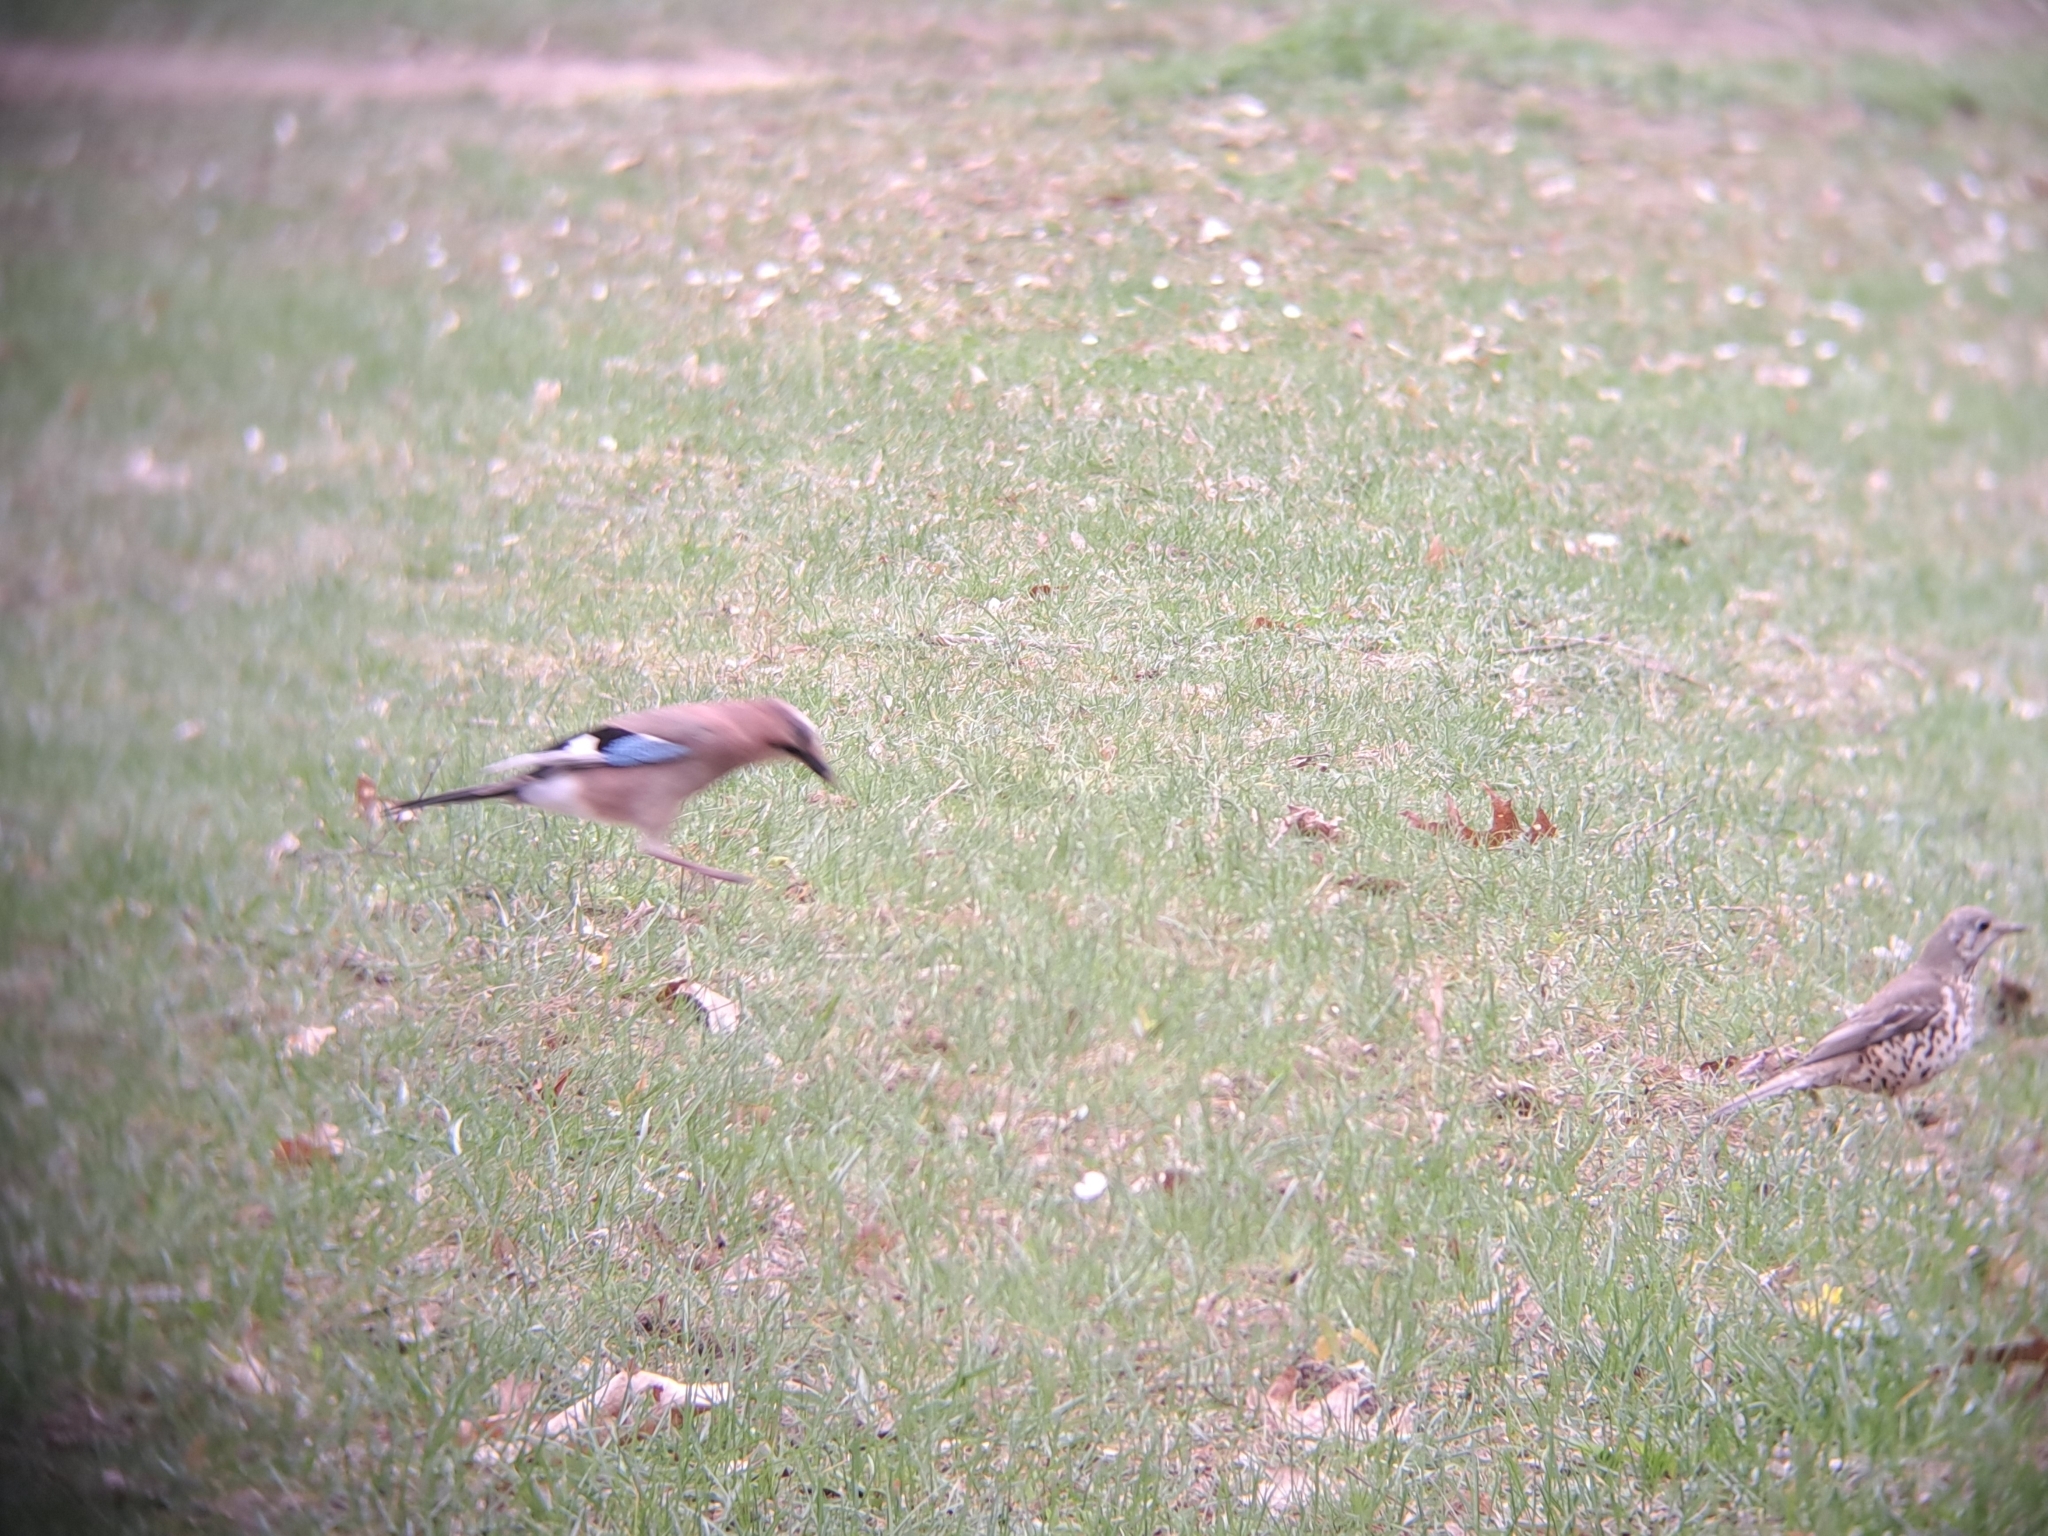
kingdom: Animalia
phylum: Chordata
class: Aves
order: Passeriformes
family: Corvidae
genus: Garrulus
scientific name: Garrulus glandarius
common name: Eurasian jay
